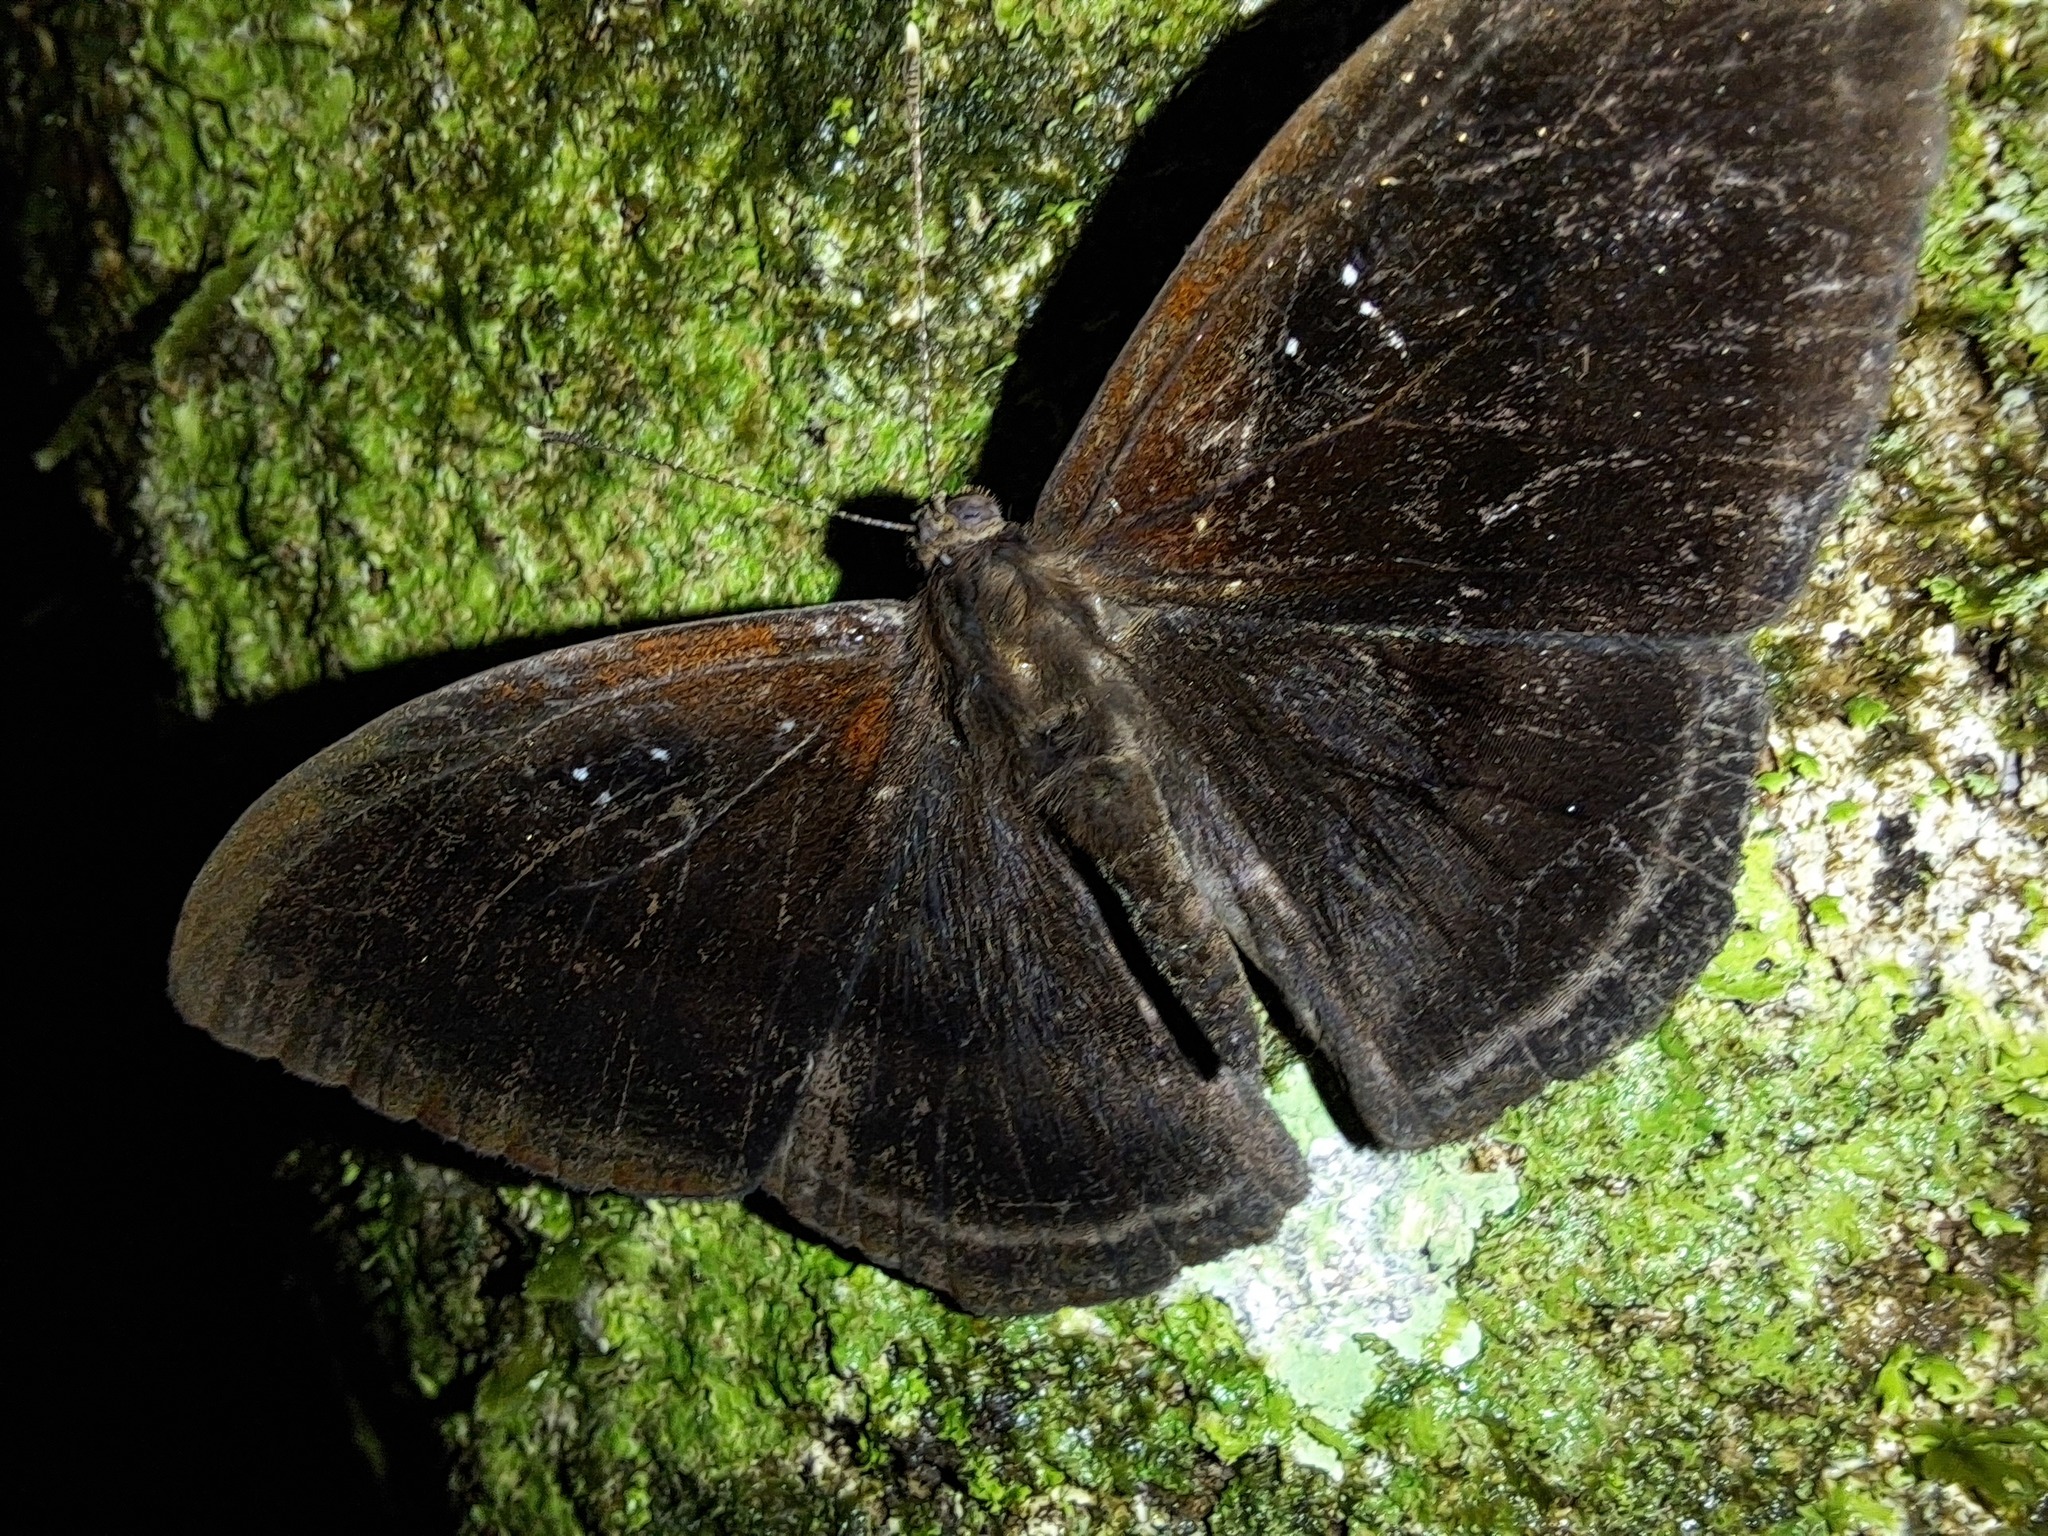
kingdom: Animalia
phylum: Arthropoda
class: Insecta
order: Lepidoptera
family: Riodinidae
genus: Ectosemia
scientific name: Ectosemia
